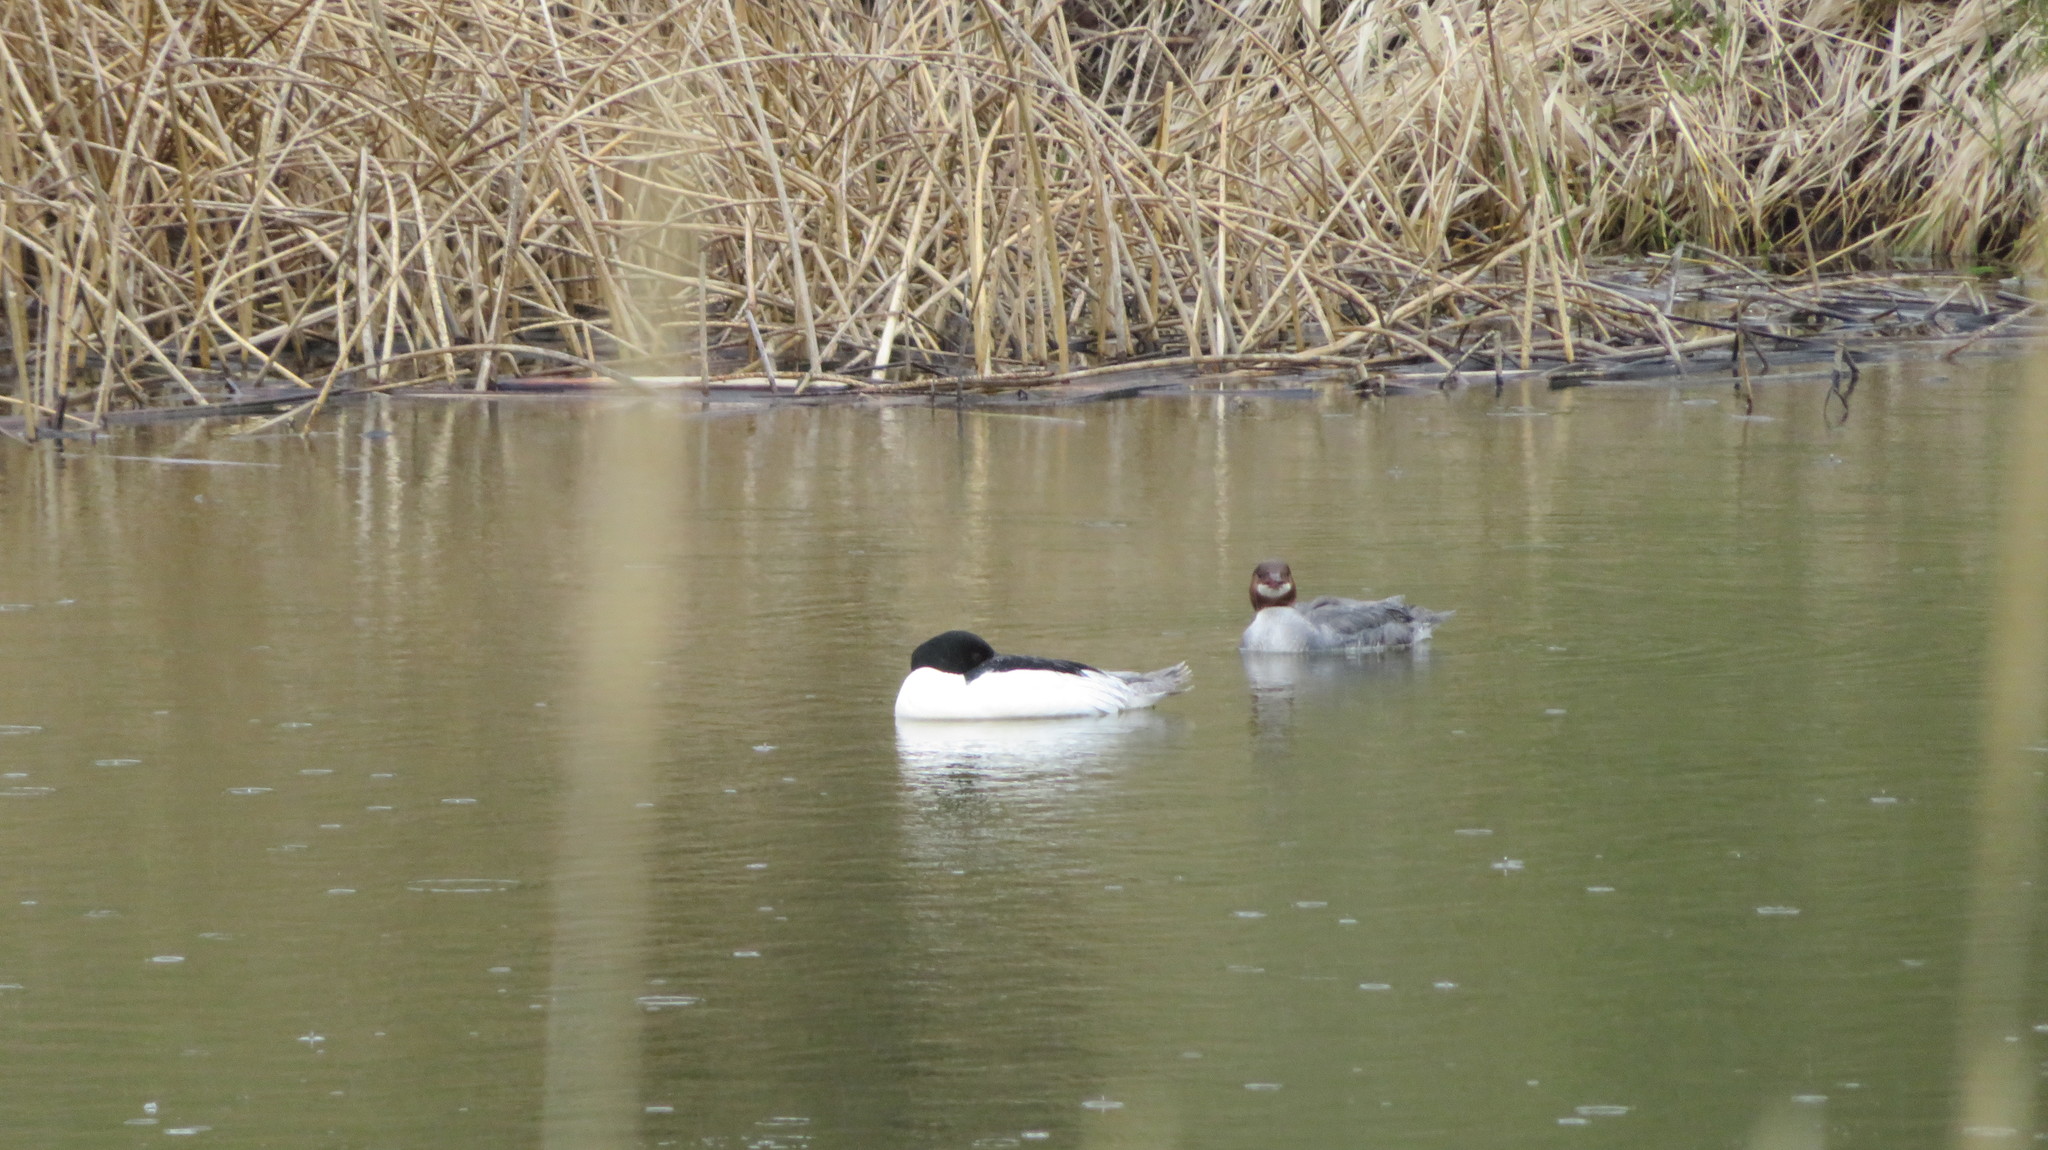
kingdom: Animalia
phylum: Chordata
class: Aves
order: Anseriformes
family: Anatidae
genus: Mergus
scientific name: Mergus merganser
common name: Common merganser
